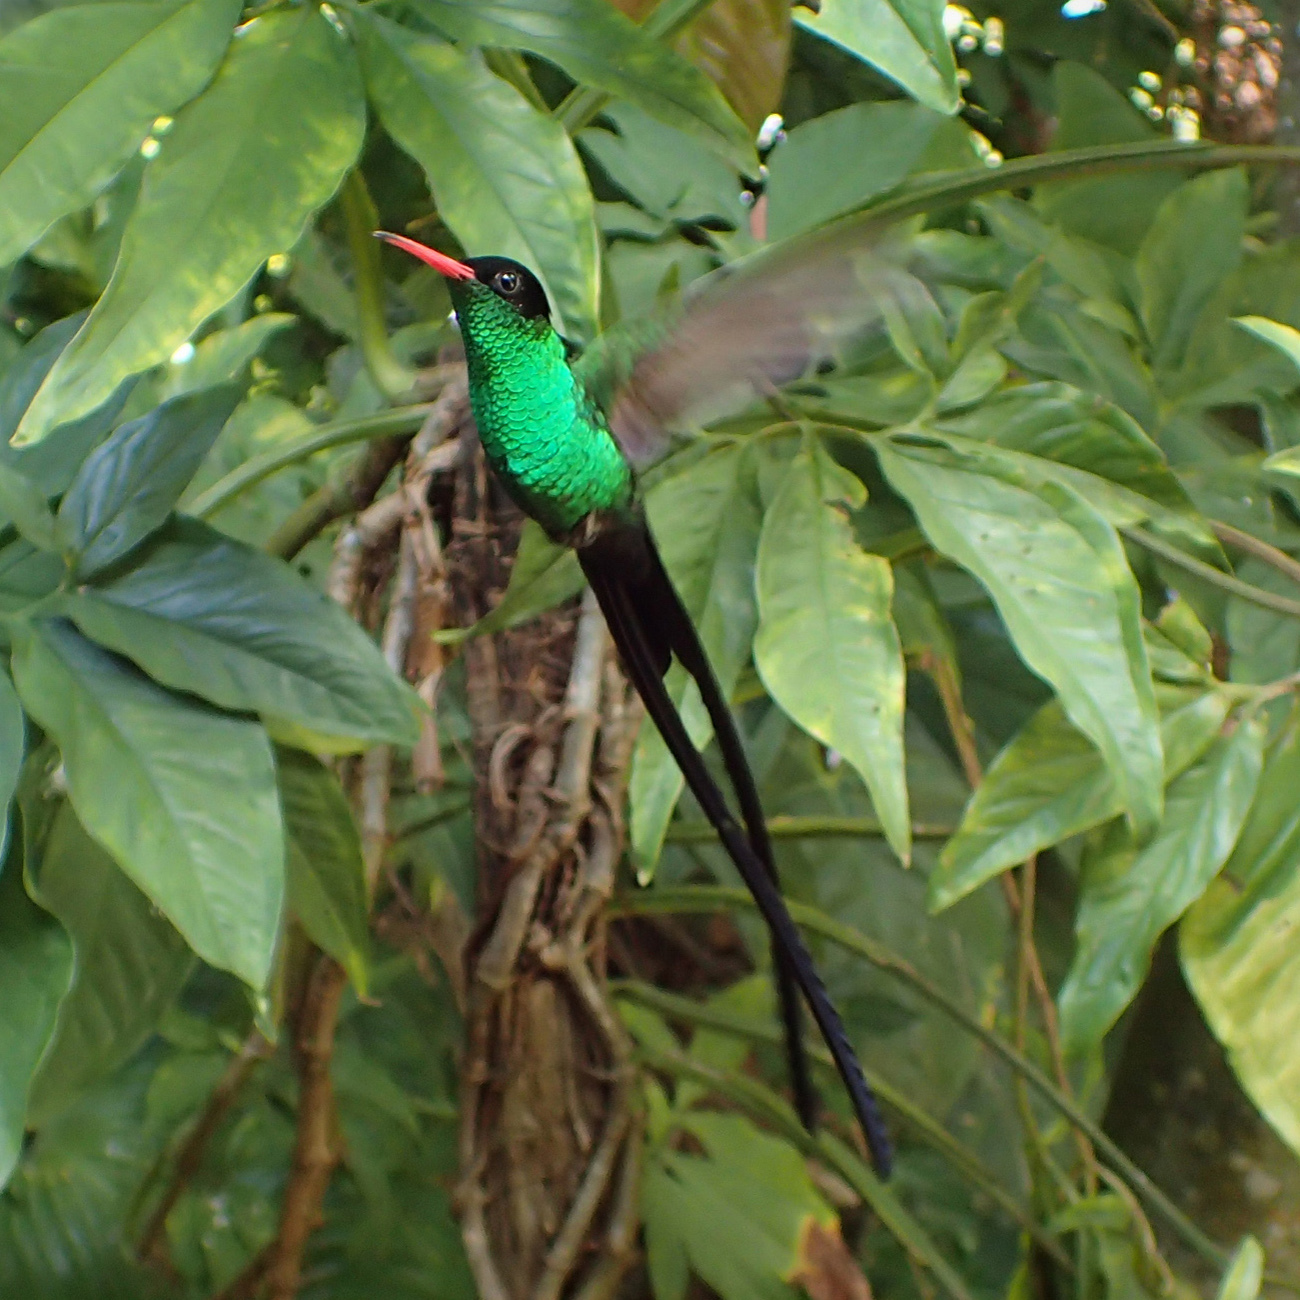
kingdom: Animalia
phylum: Chordata
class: Aves
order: Apodiformes
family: Trochilidae
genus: Trochilus
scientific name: Trochilus polytmus
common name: Red-billed streamertail
